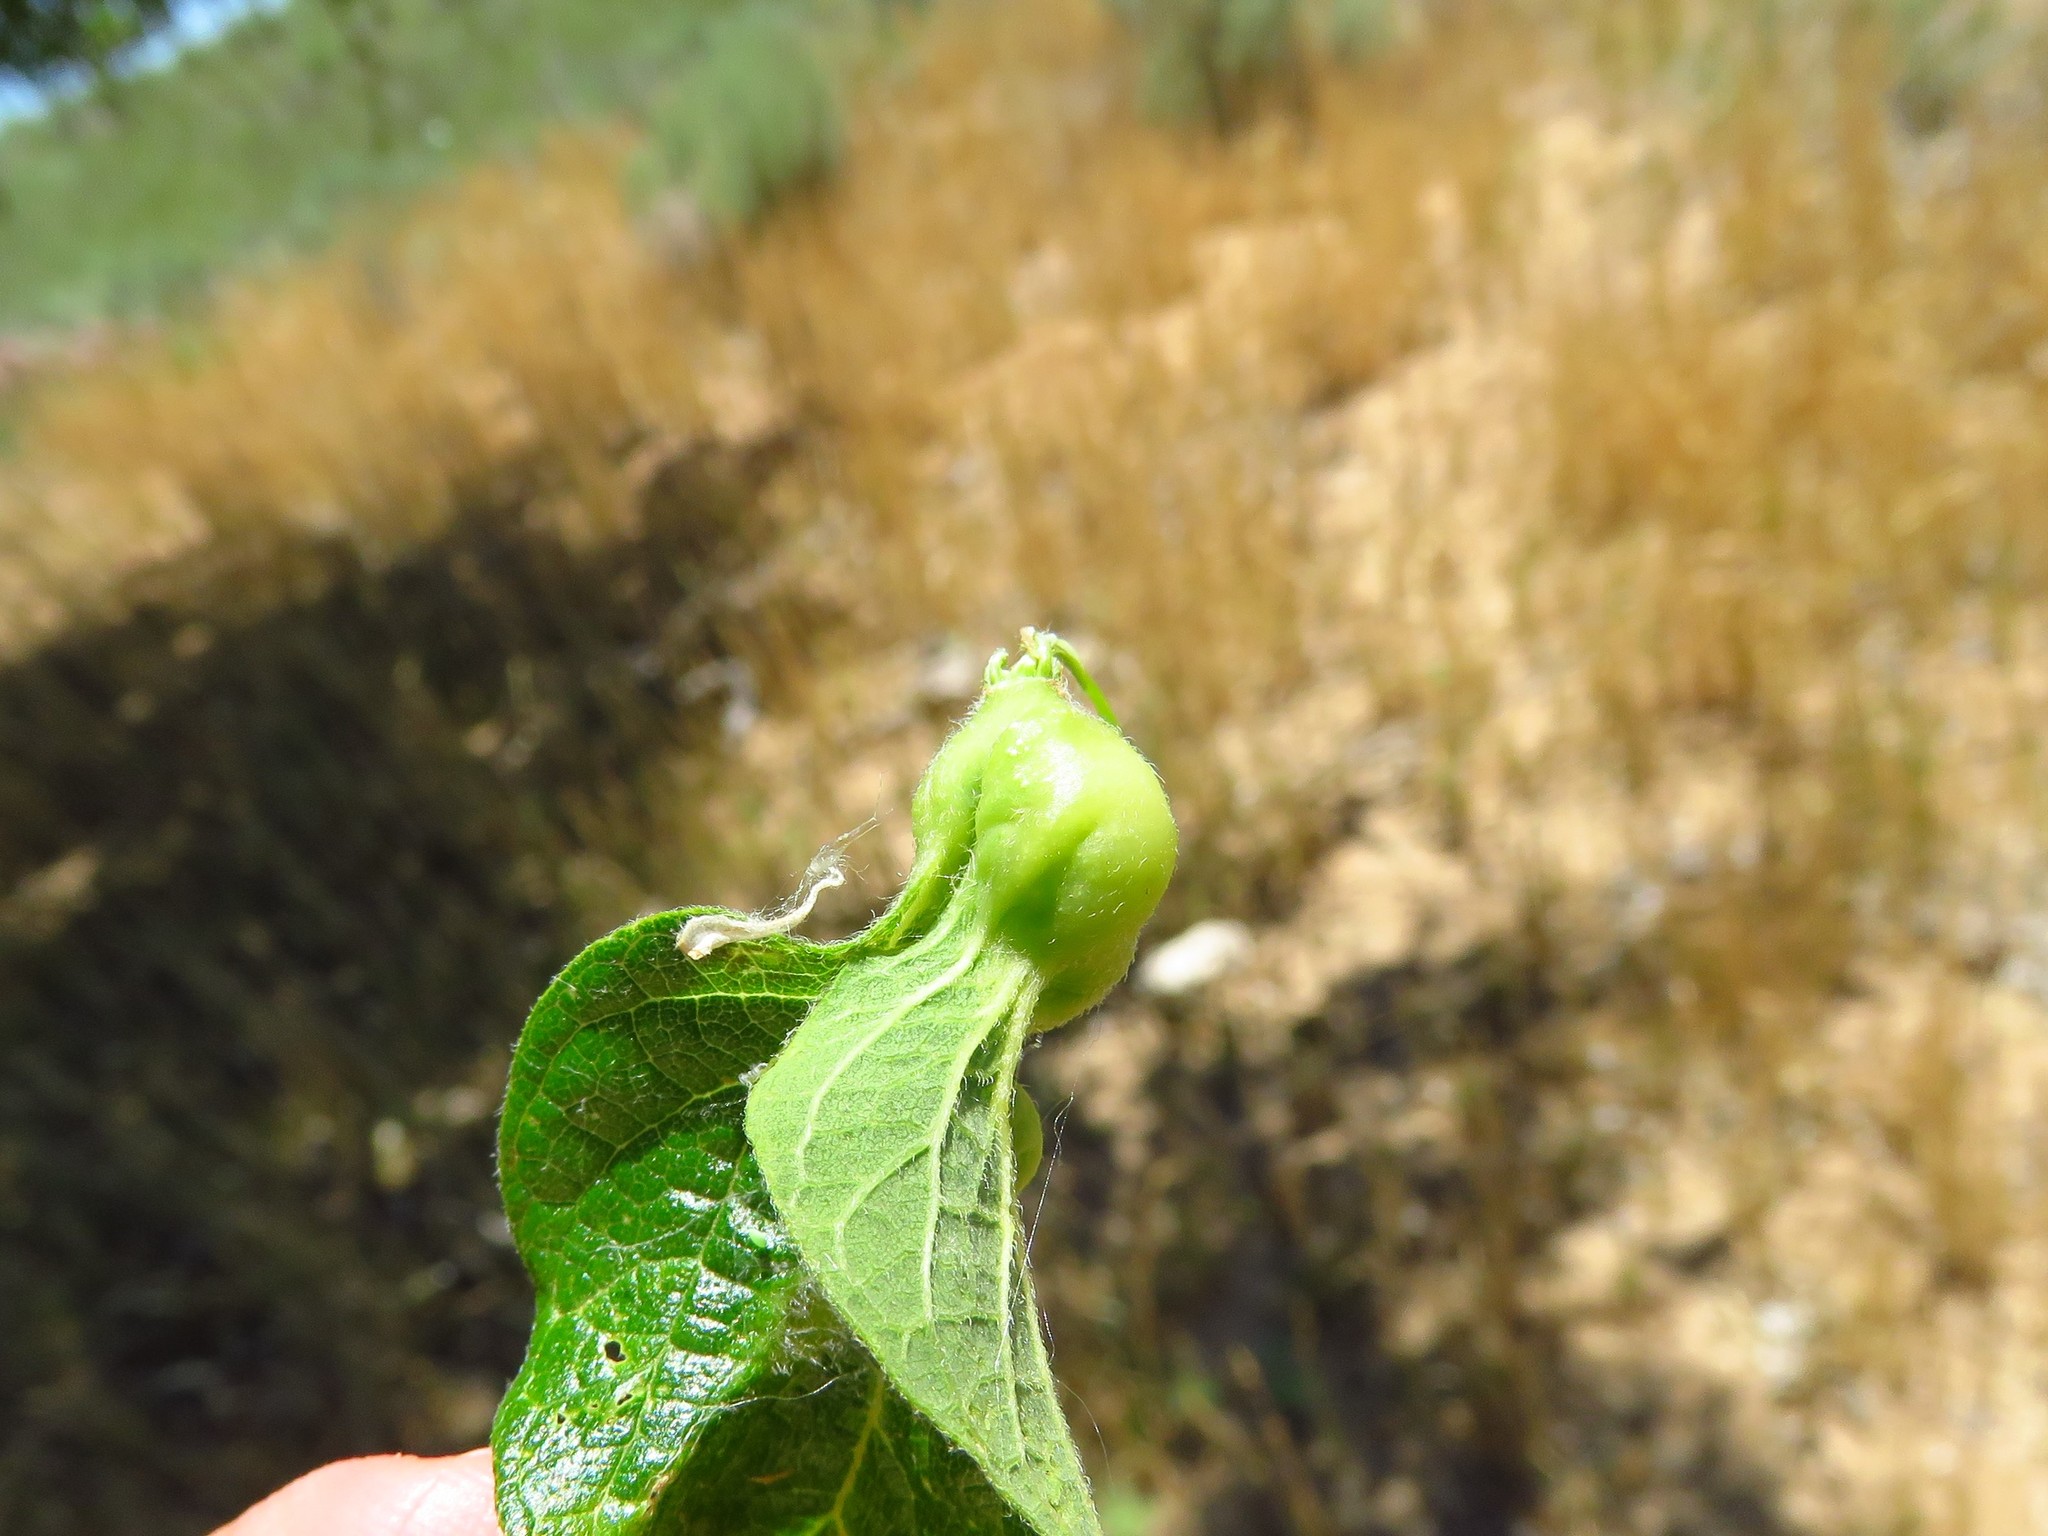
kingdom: Animalia
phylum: Arthropoda
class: Insecta
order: Hemiptera
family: Aphalaridae
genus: Pachypsylla
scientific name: Pachypsylla venusta
